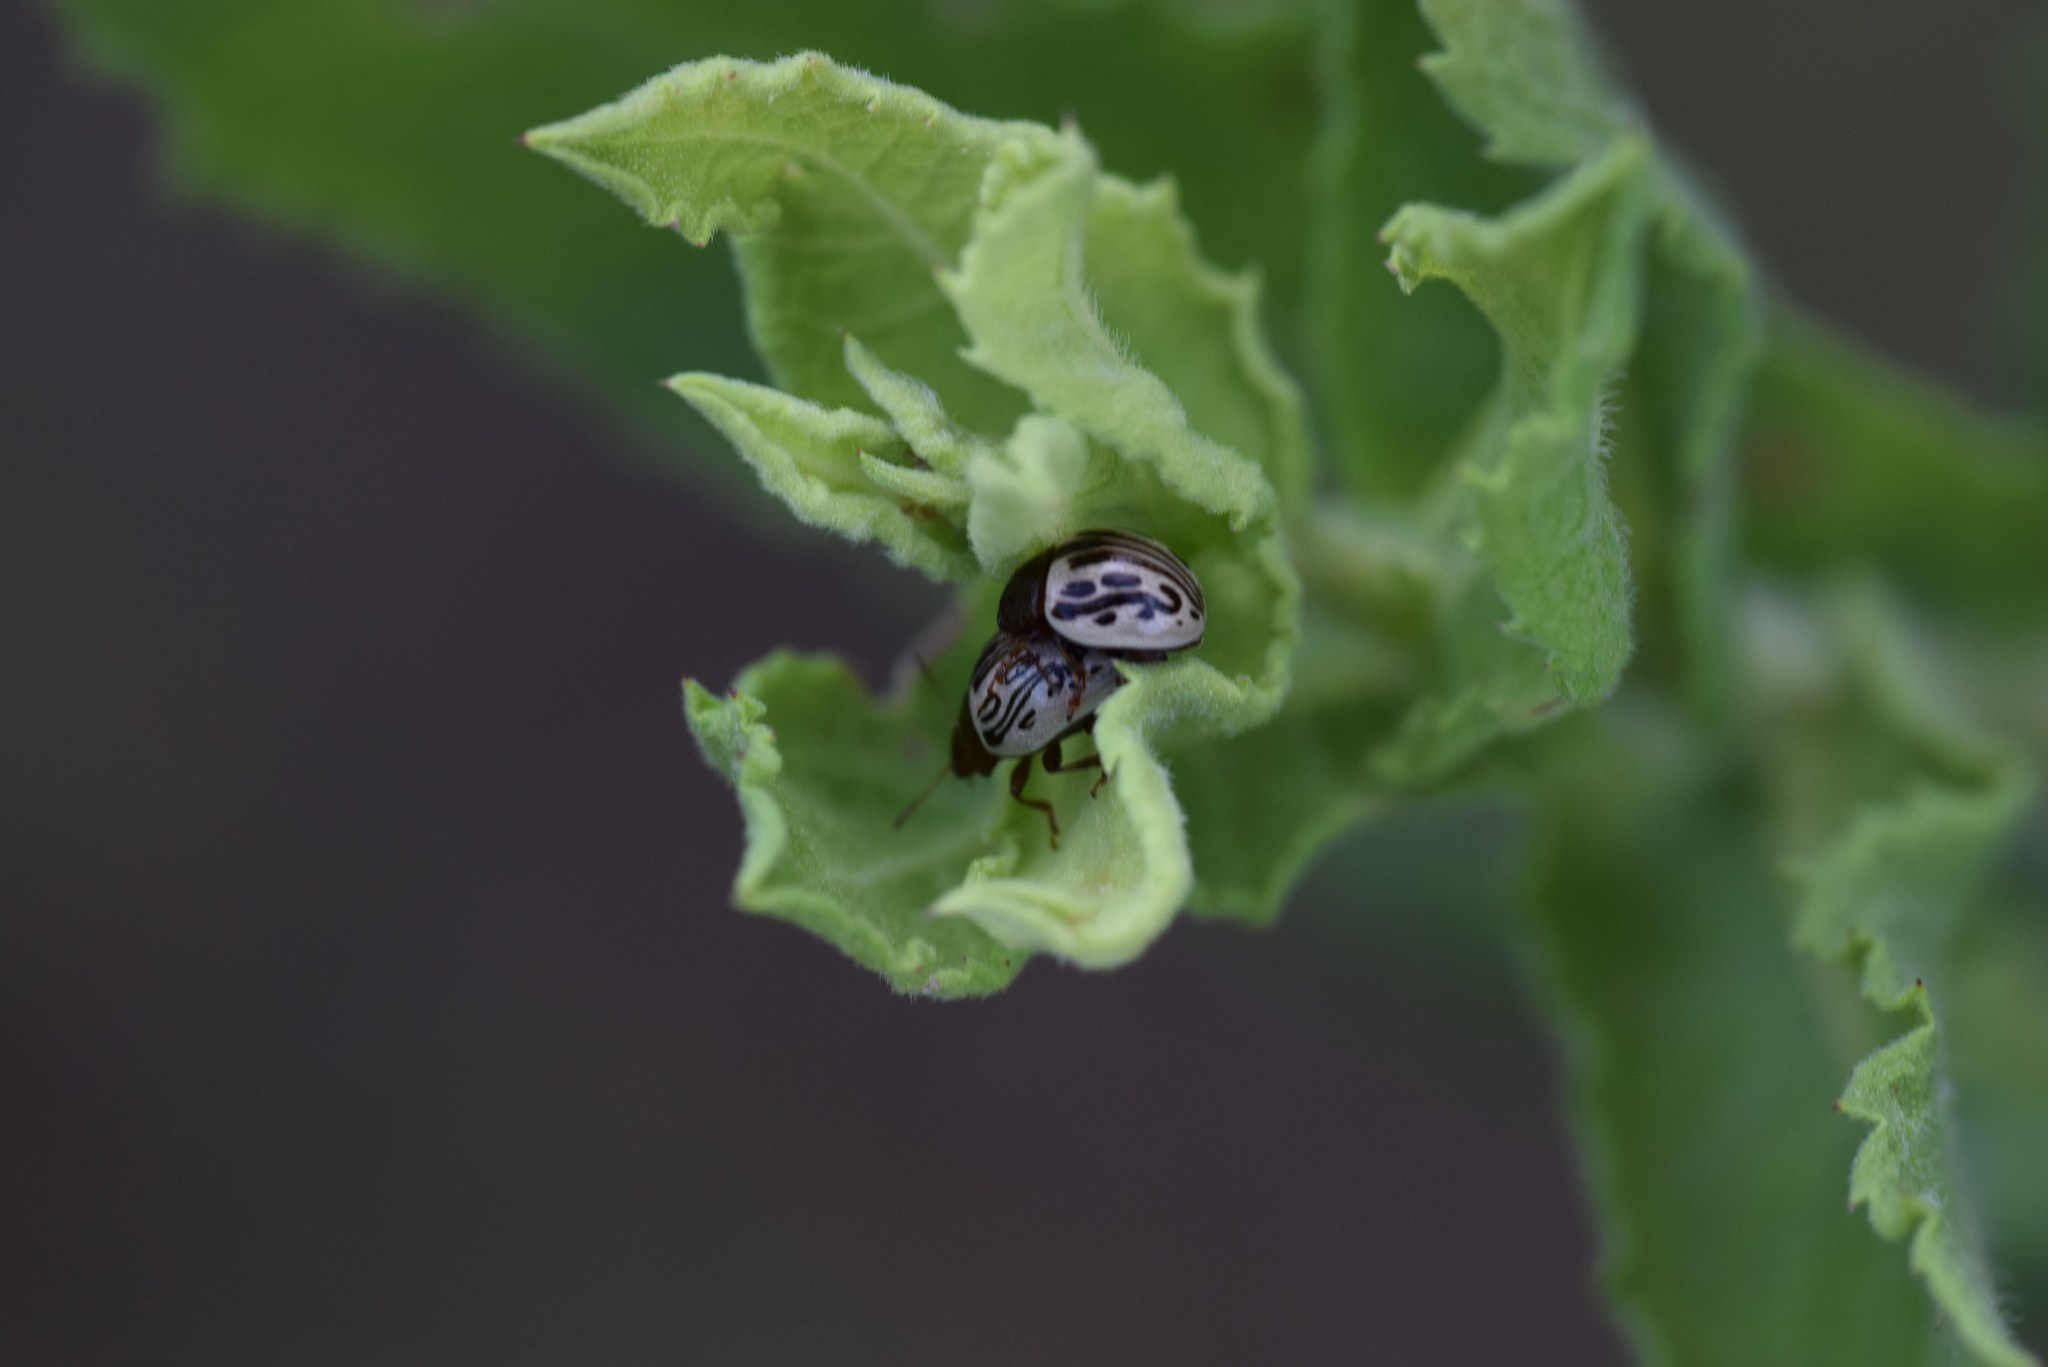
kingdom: Animalia
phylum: Arthropoda
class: Insecta
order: Coleoptera
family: Chrysomelidae
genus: Calligrapha
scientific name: Calligrapha
